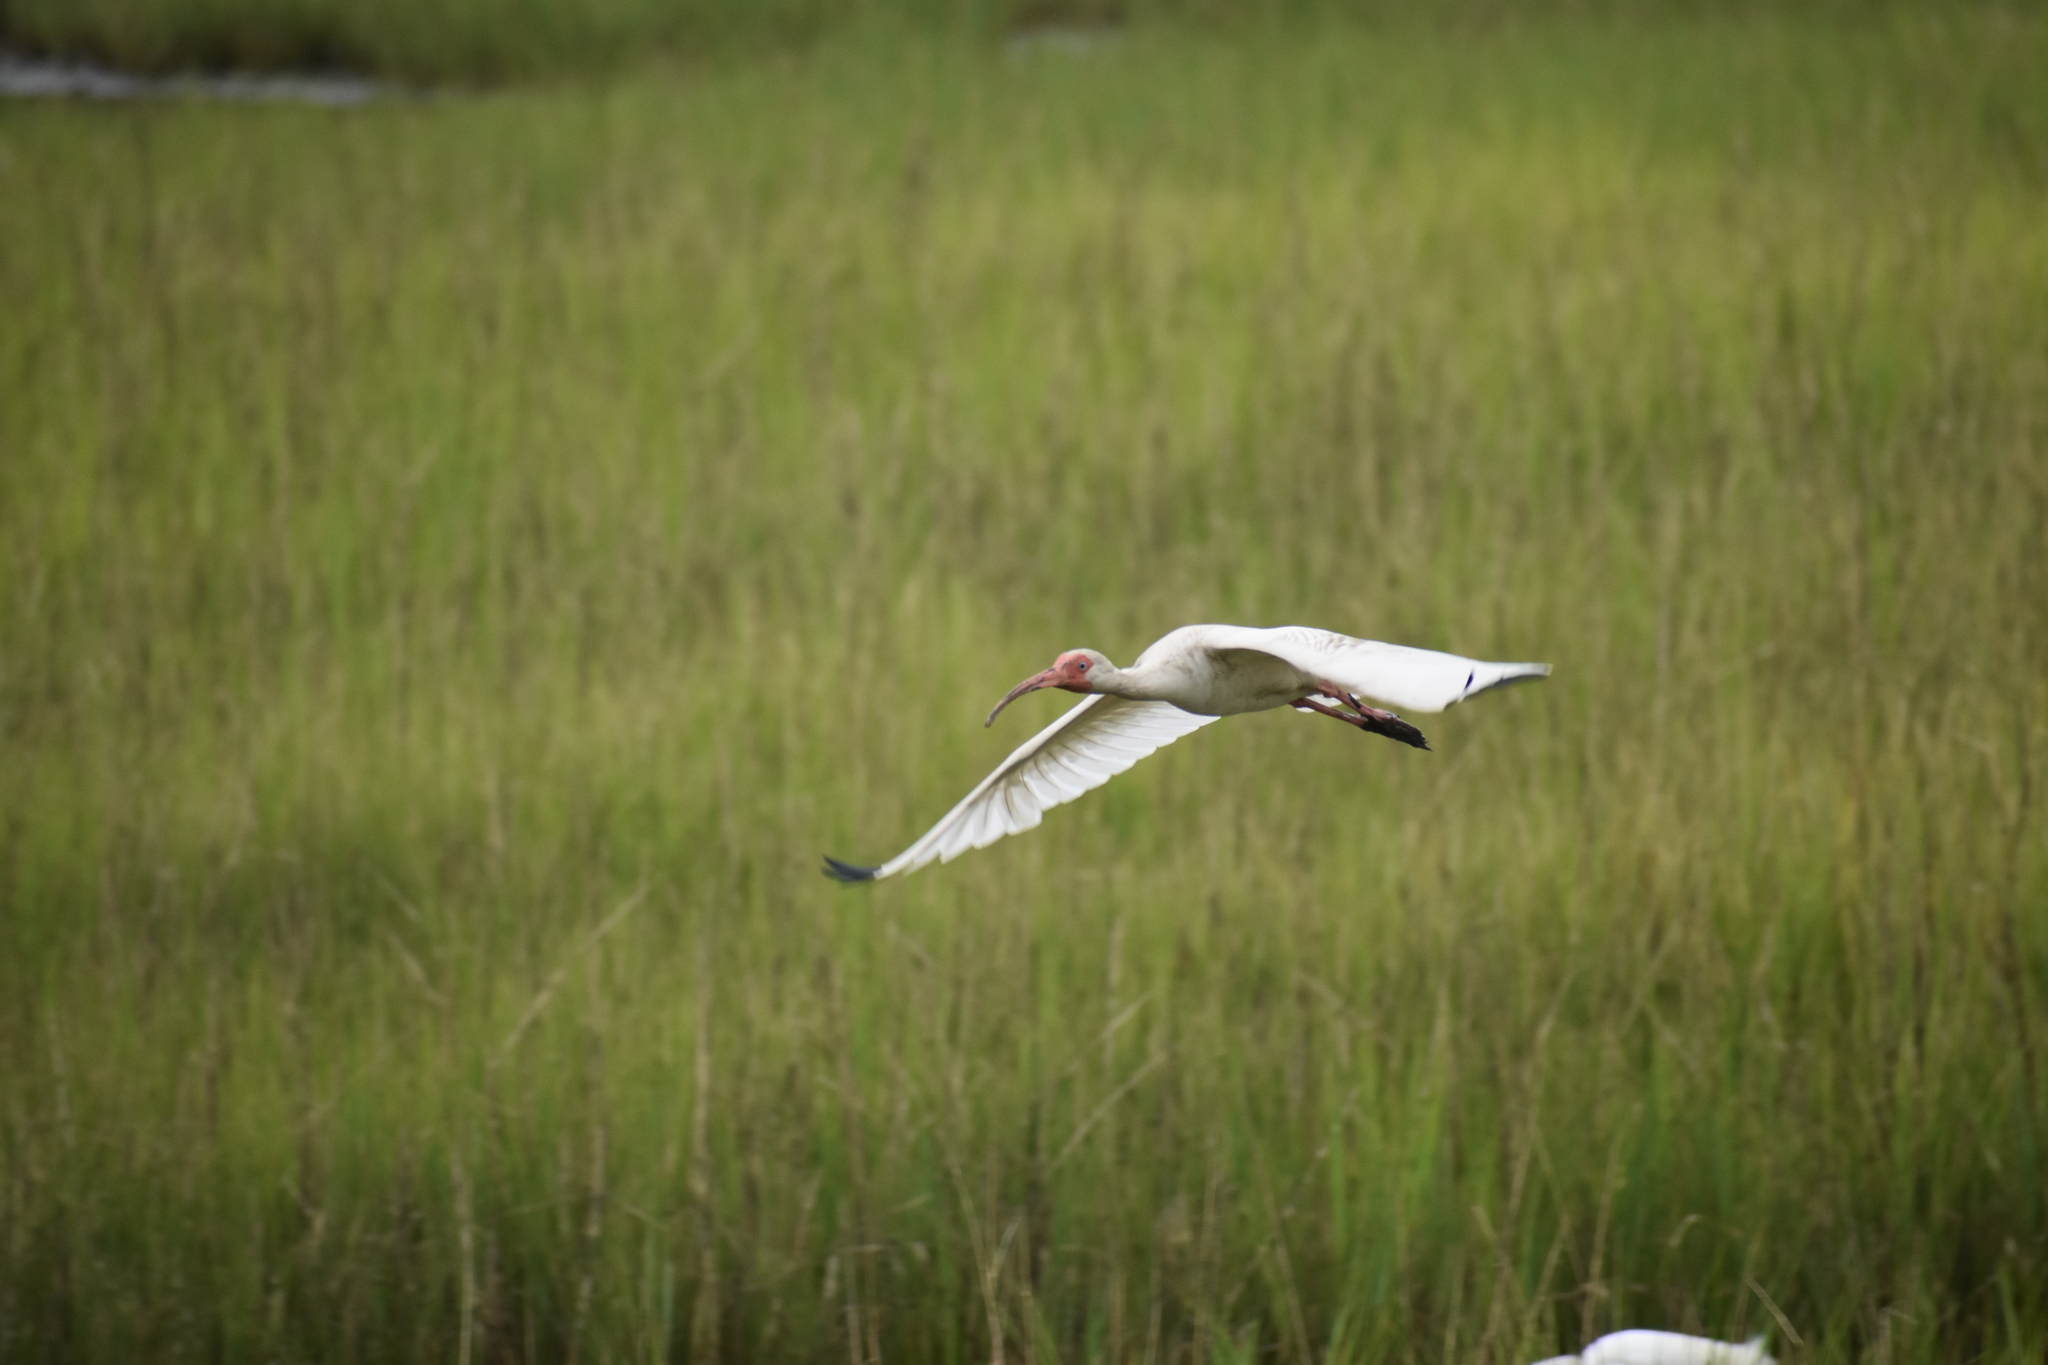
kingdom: Animalia
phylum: Chordata
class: Aves
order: Pelecaniformes
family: Threskiornithidae
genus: Eudocimus
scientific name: Eudocimus albus
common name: White ibis
